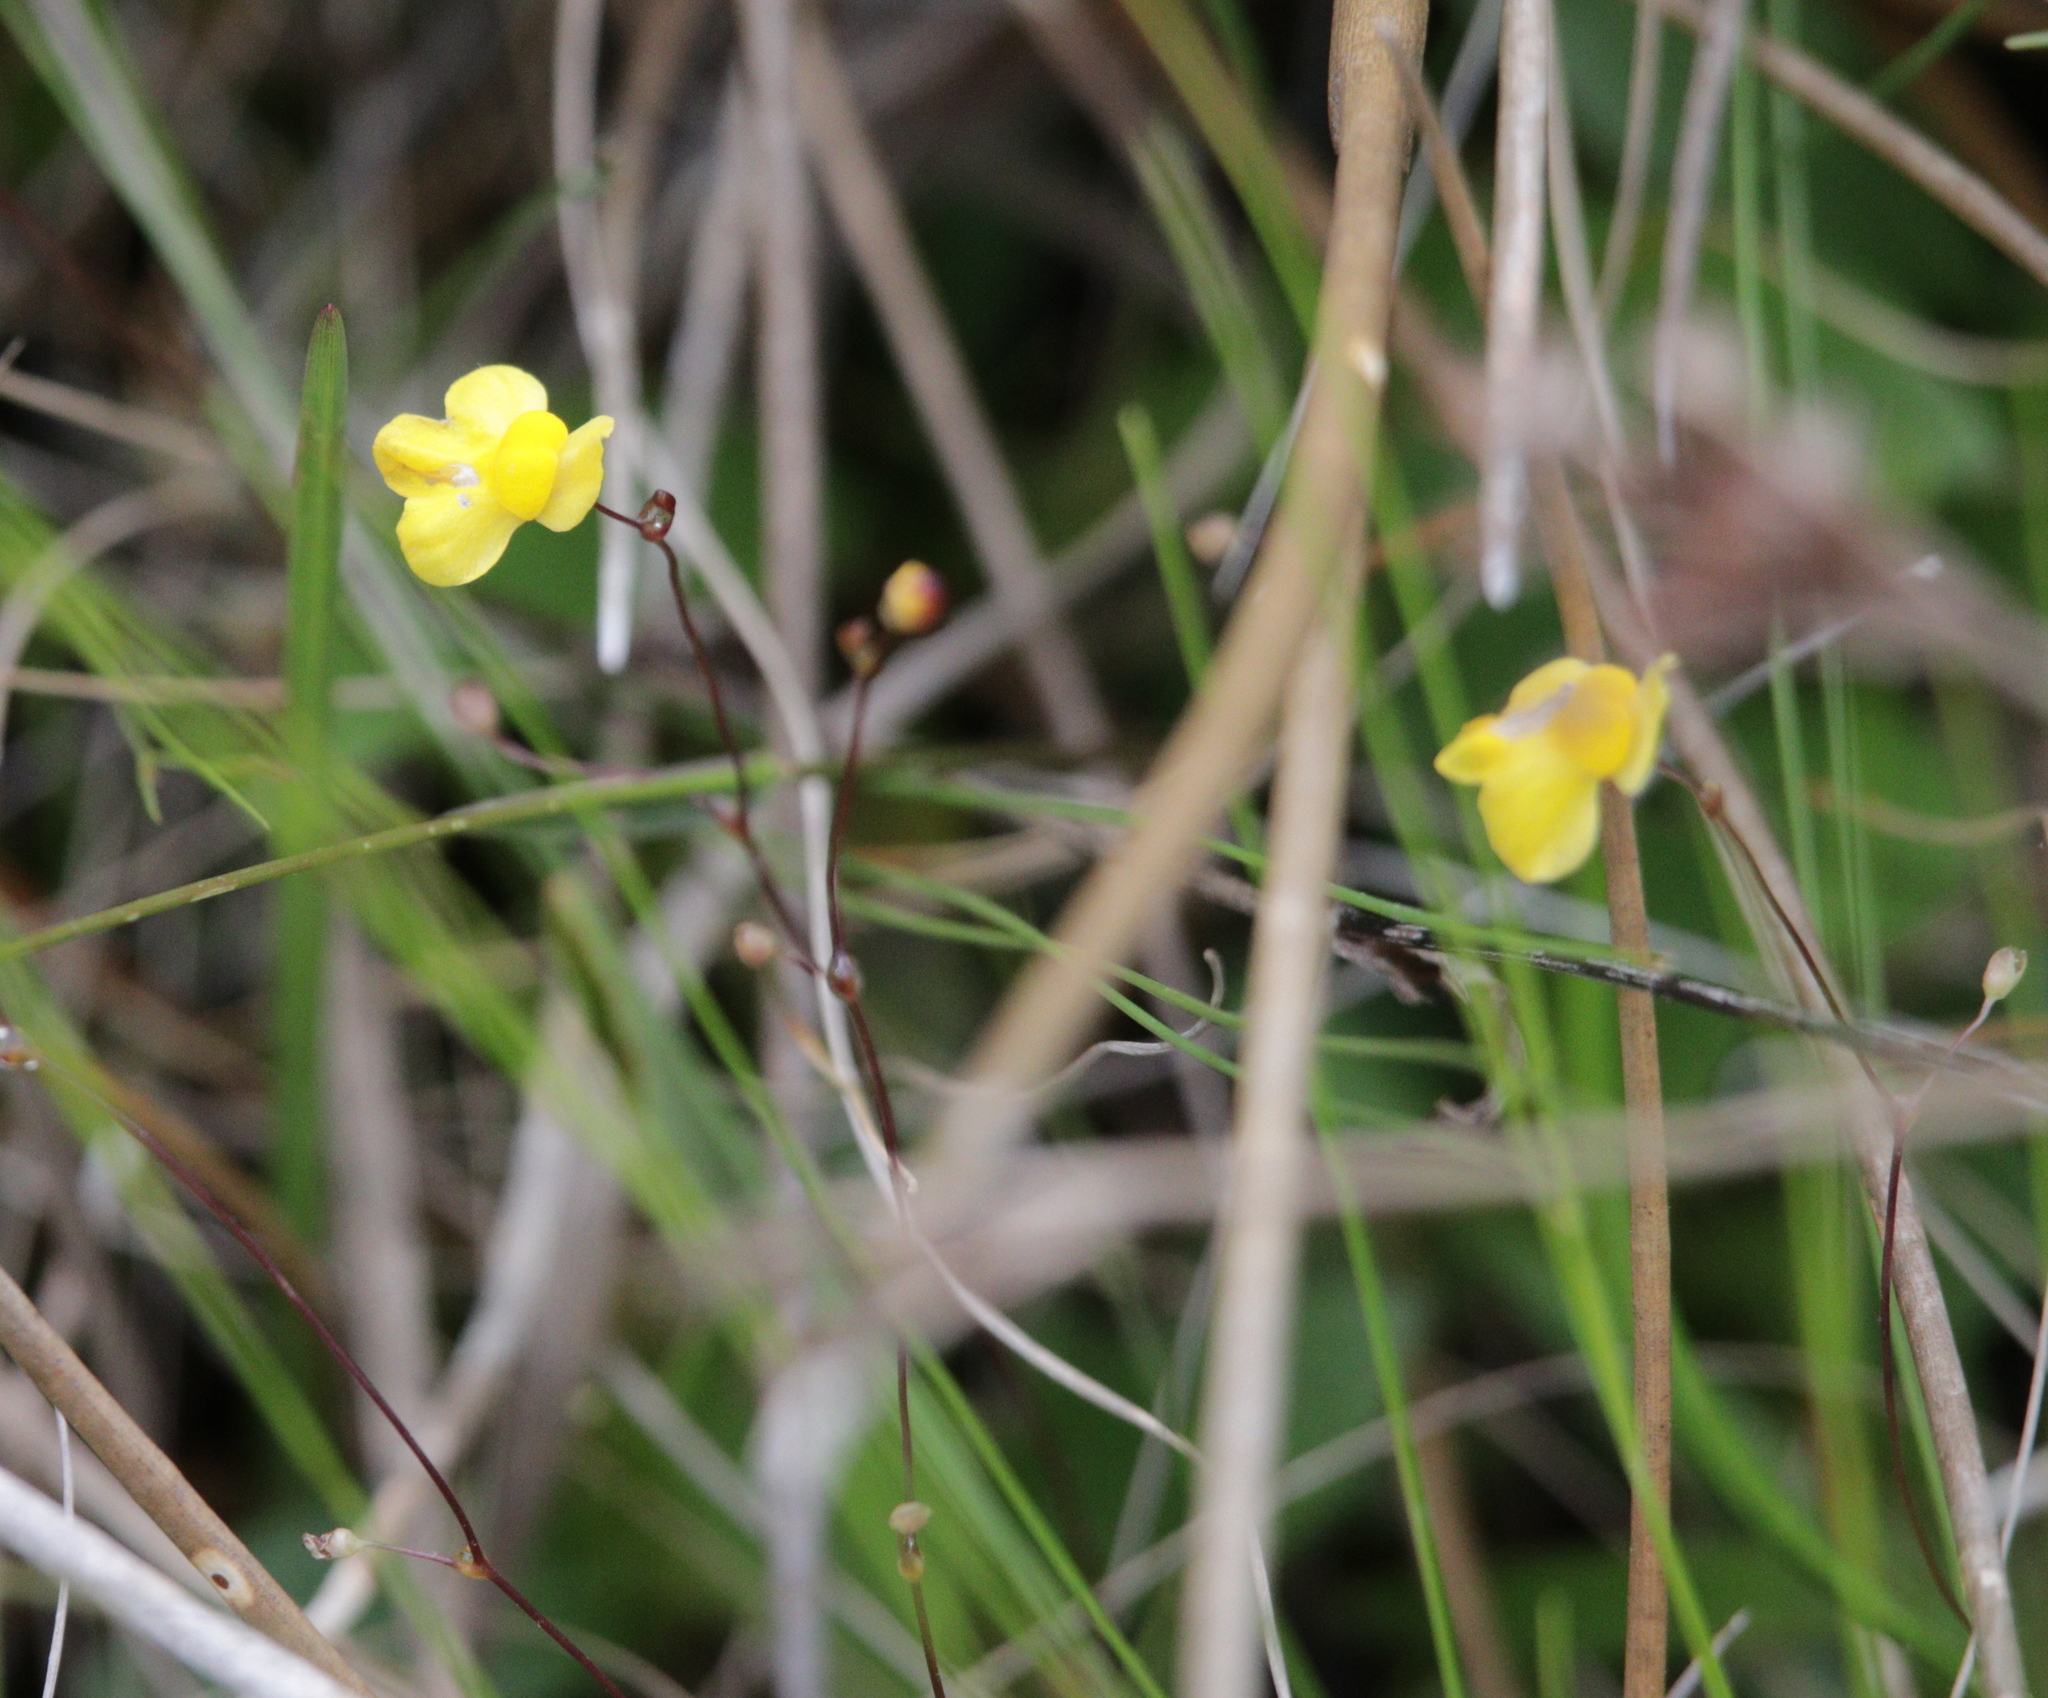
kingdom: Plantae
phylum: Tracheophyta
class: Magnoliopsida
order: Lamiales
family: Lentibulariaceae
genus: Utricularia
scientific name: Utricularia subulata
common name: Tiny bladderwort
